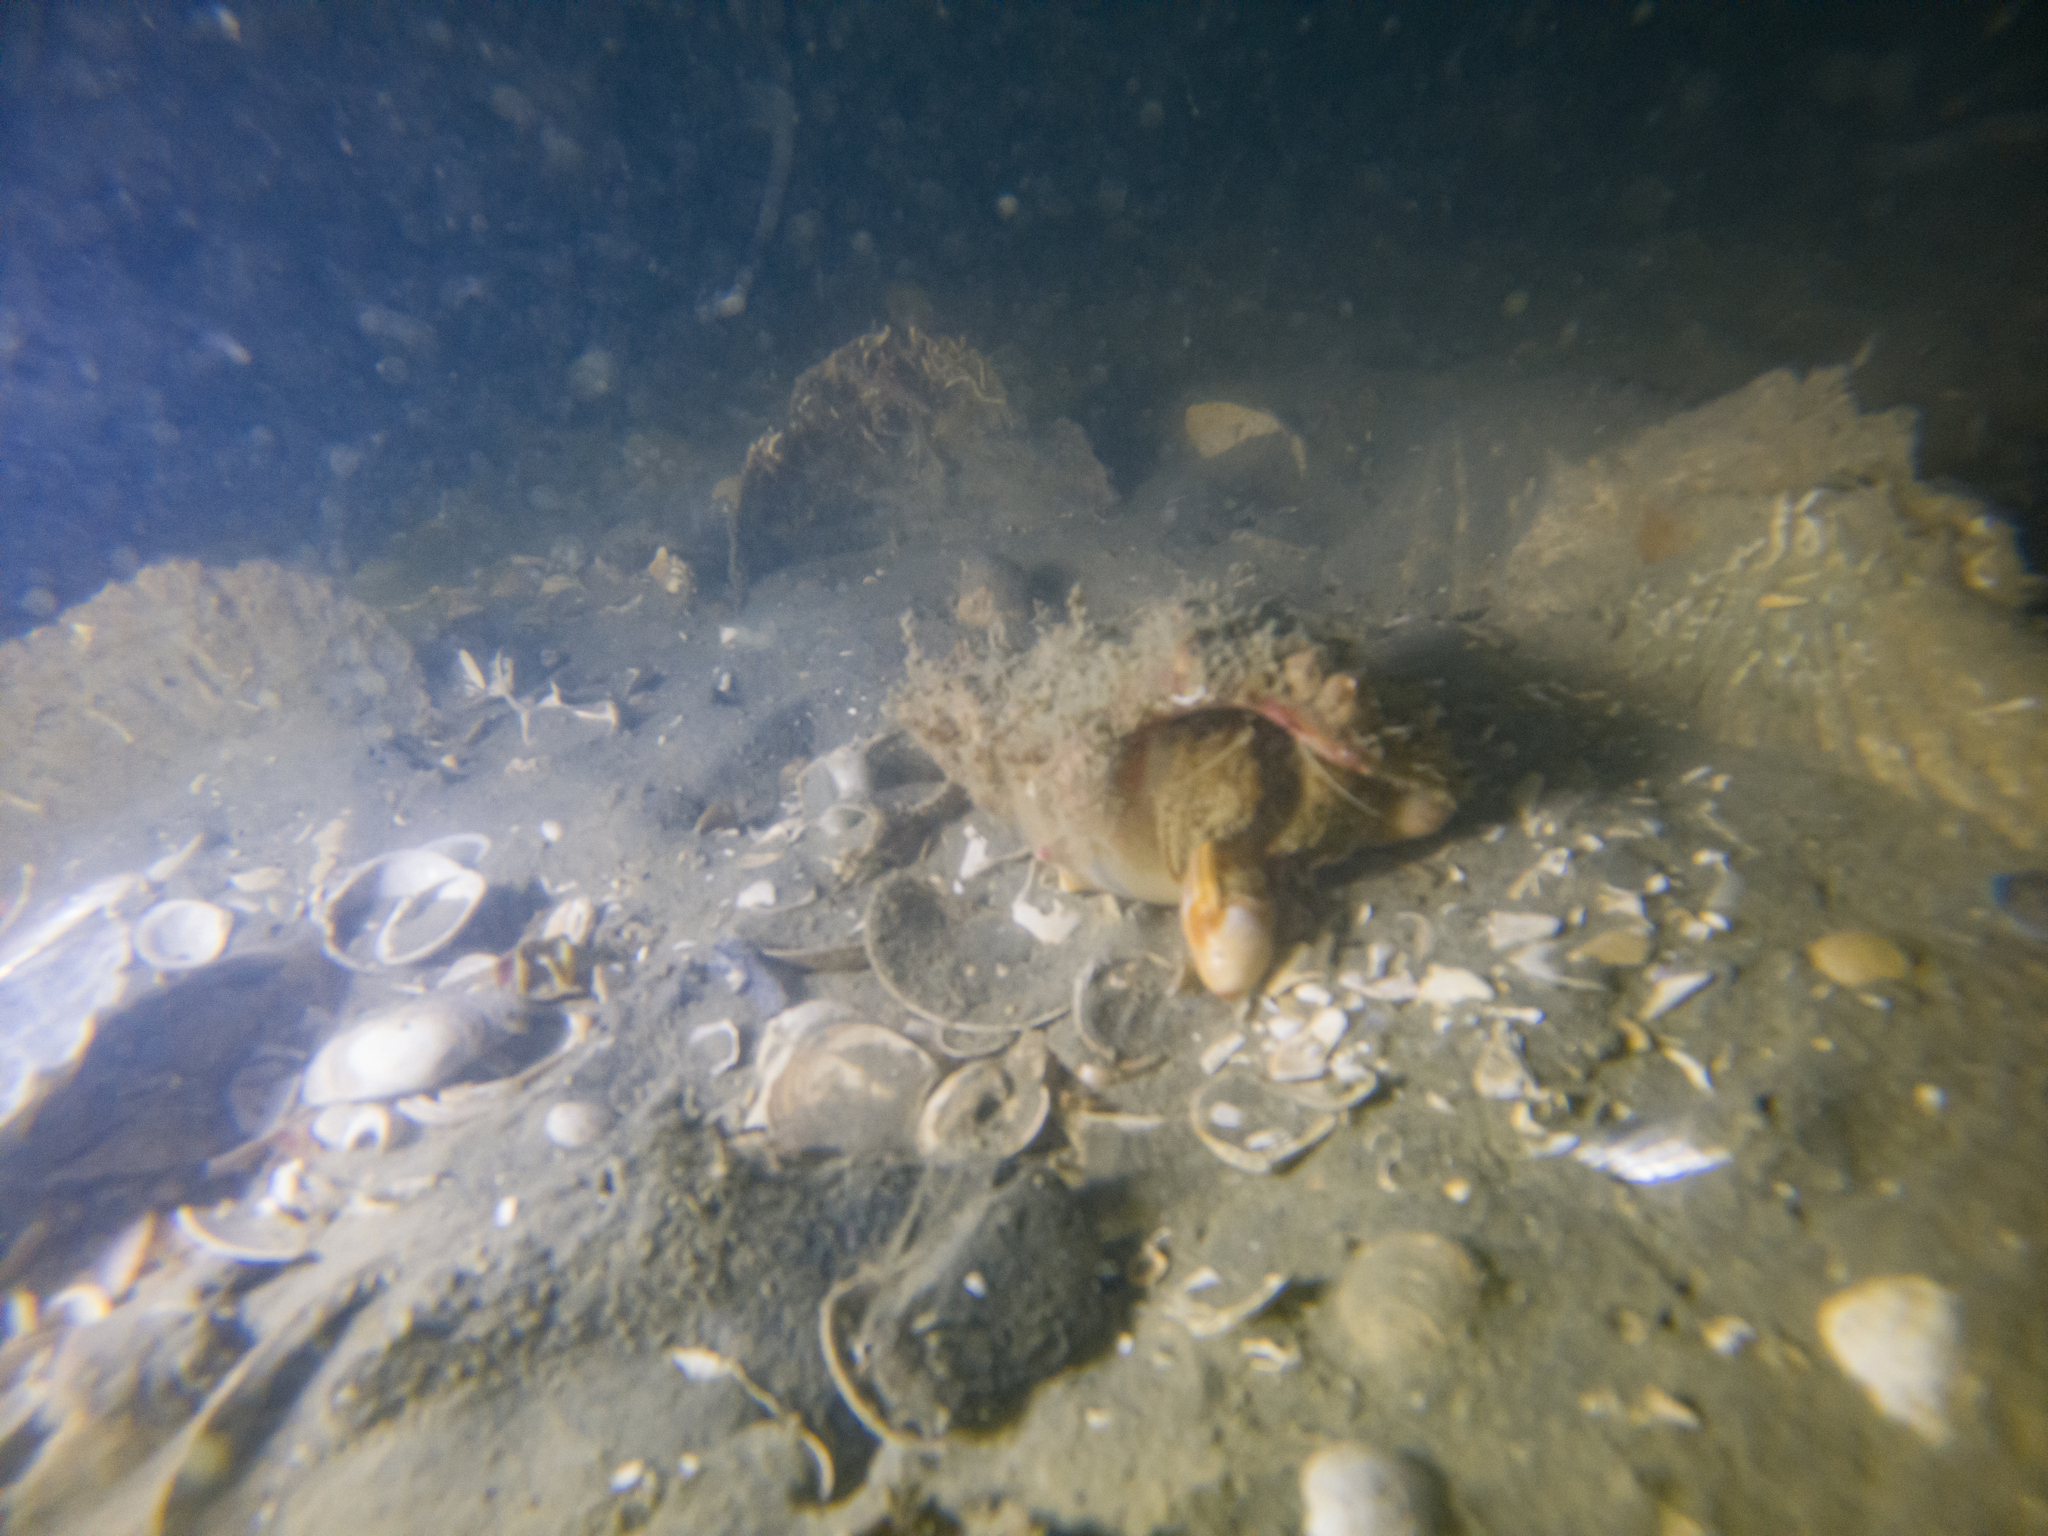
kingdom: Animalia
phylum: Arthropoda
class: Malacostraca
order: Decapoda
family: Diogenidae
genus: Areopaguristes
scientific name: Areopaguristes setosus
